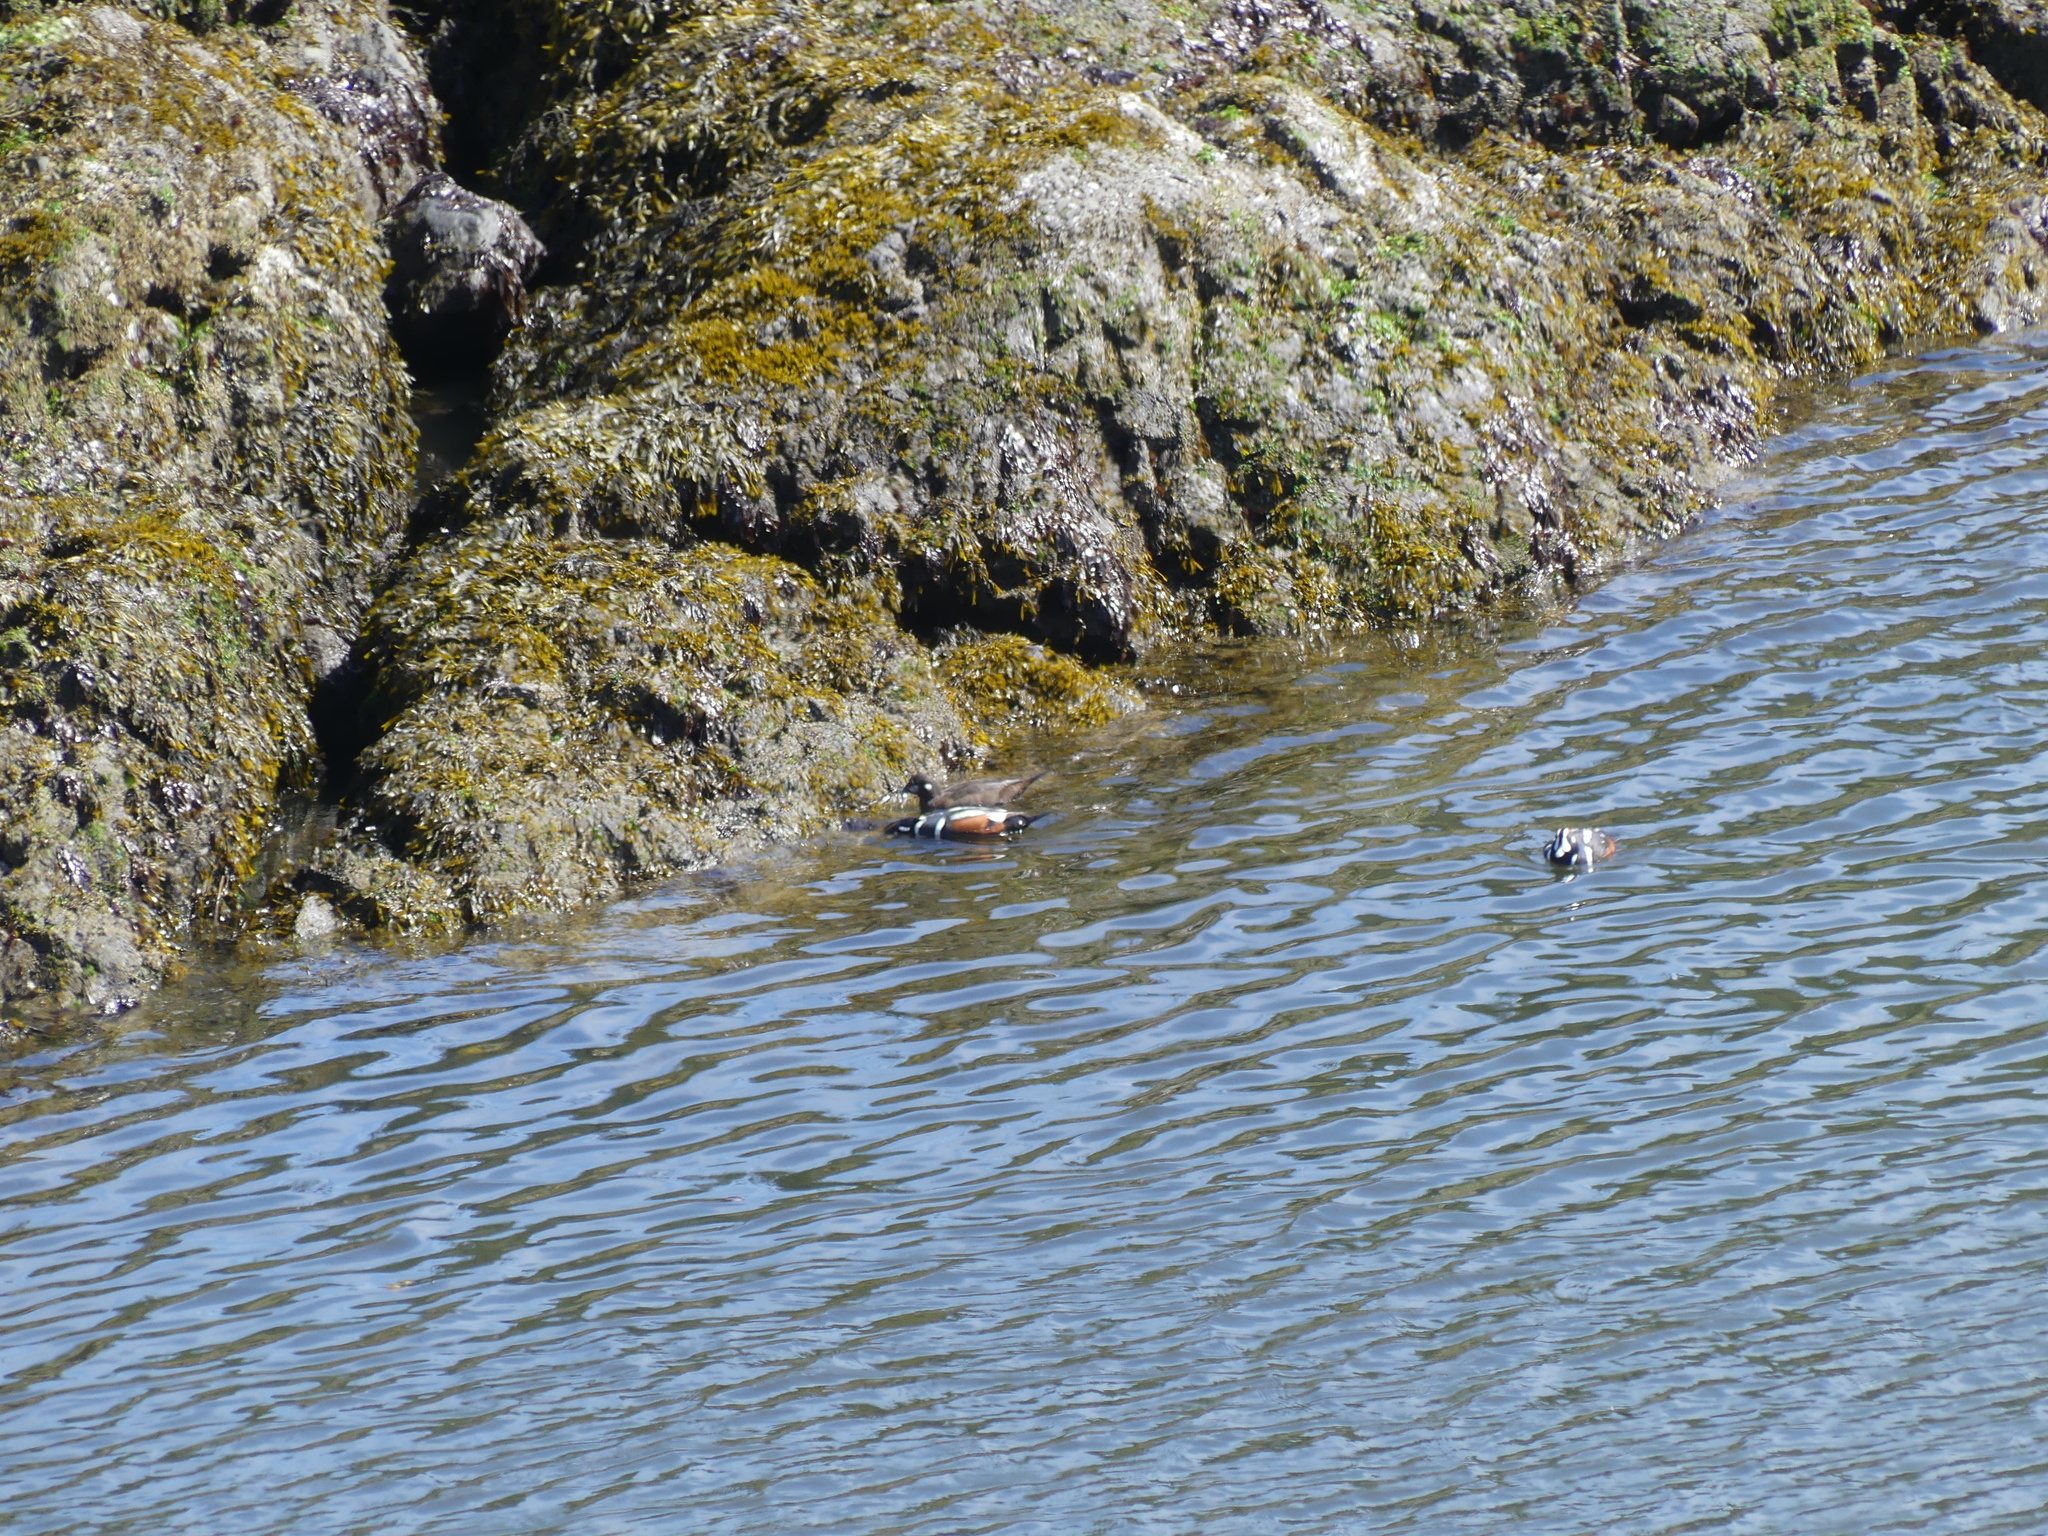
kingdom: Animalia
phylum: Chordata
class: Aves
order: Anseriformes
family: Anatidae
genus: Histrionicus
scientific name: Histrionicus histrionicus
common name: Harlequin duck
